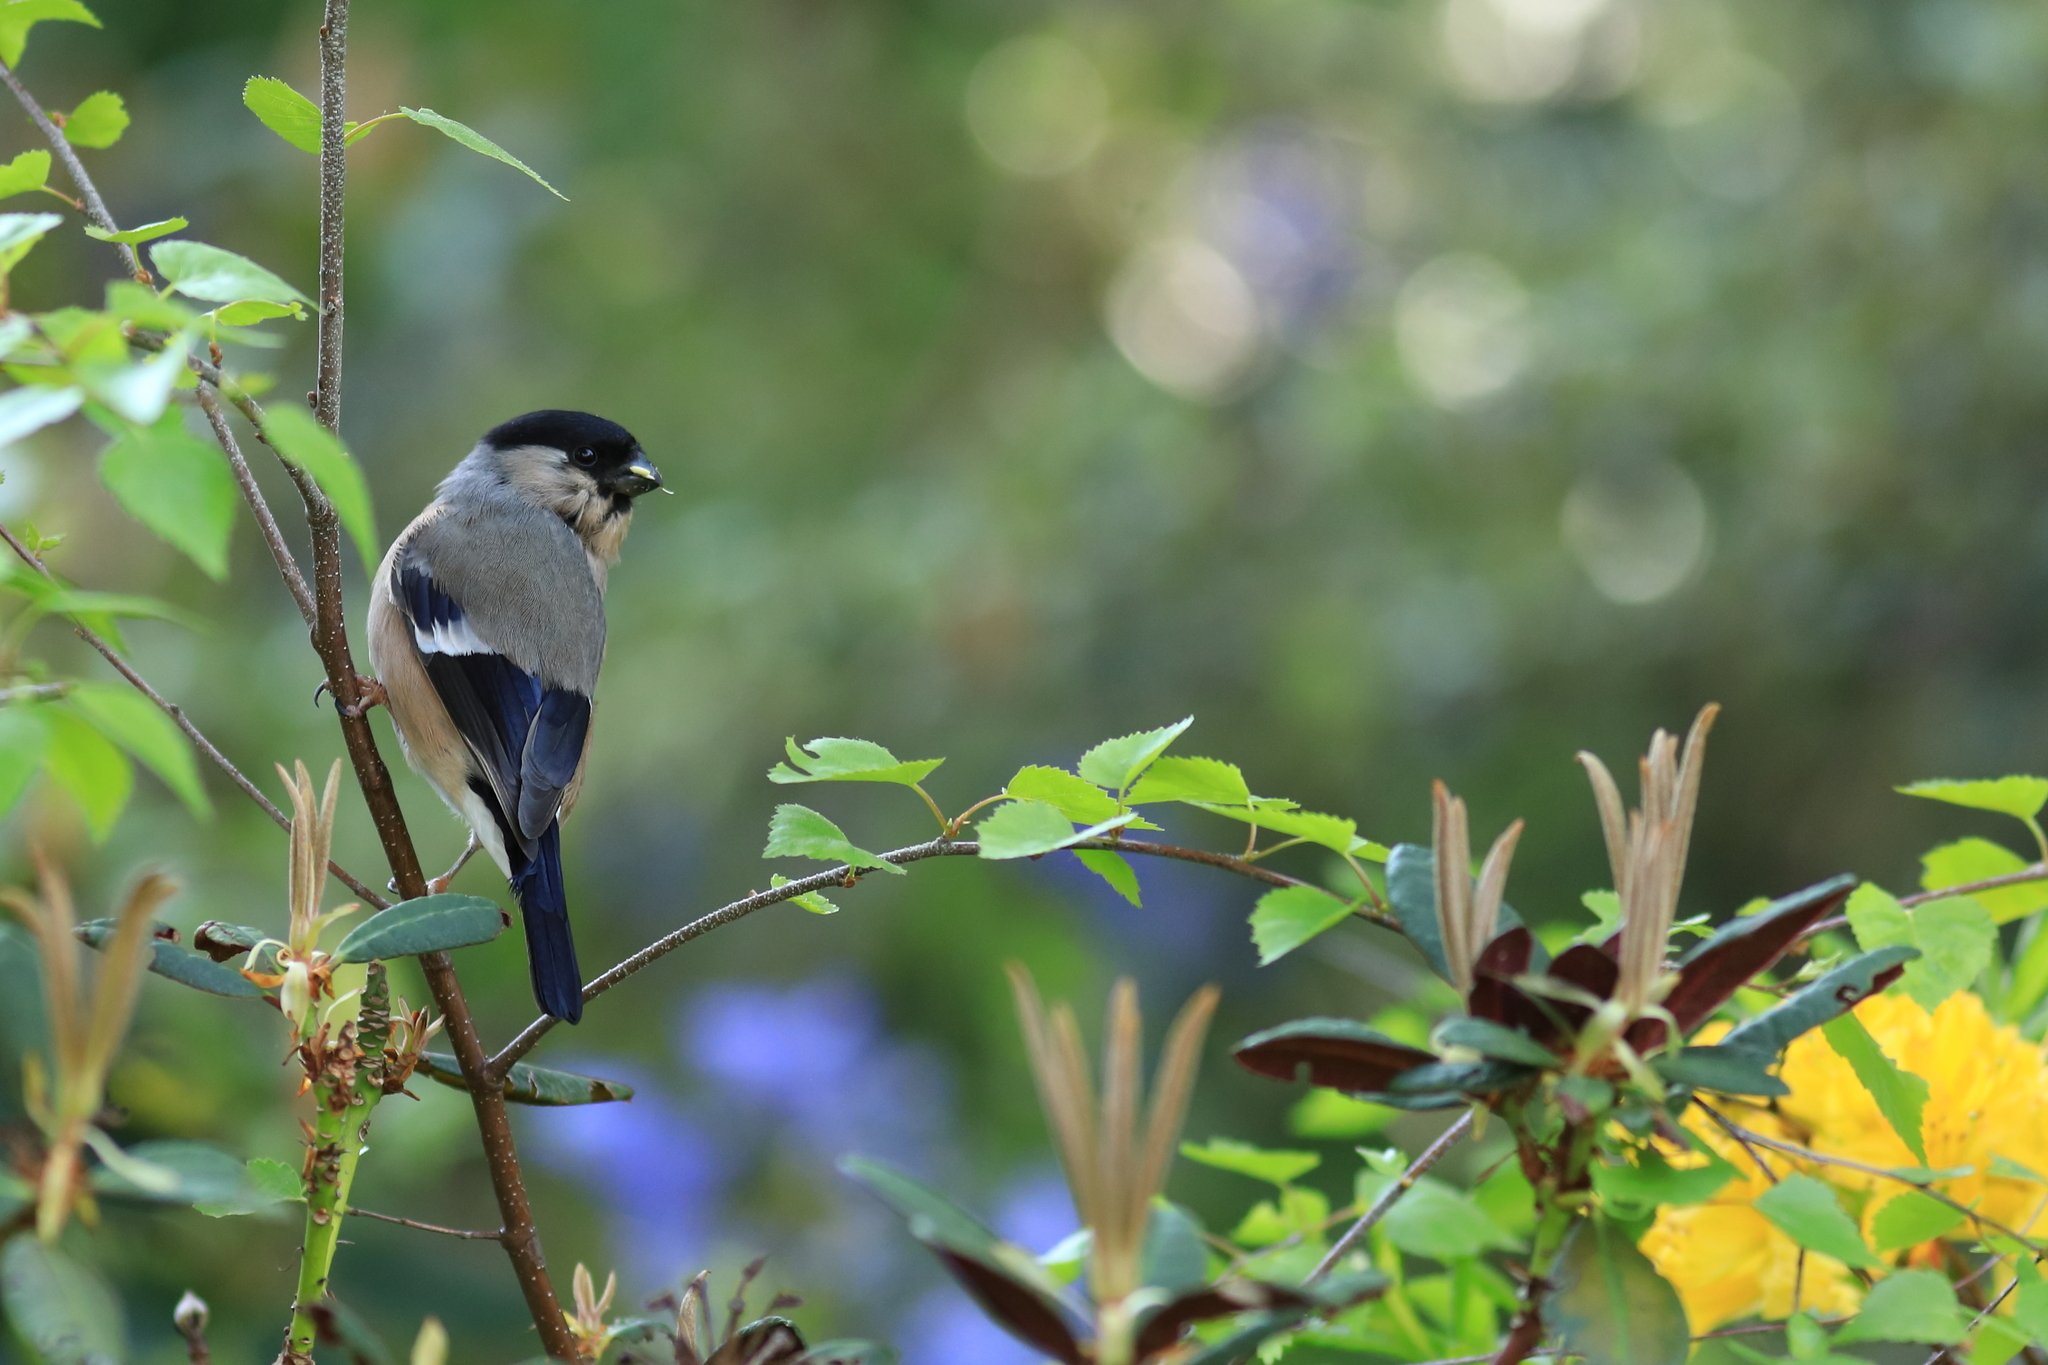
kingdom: Animalia
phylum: Chordata
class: Aves
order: Passeriformes
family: Fringillidae
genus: Pyrrhula
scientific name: Pyrrhula pyrrhula
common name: Eurasian bullfinch
